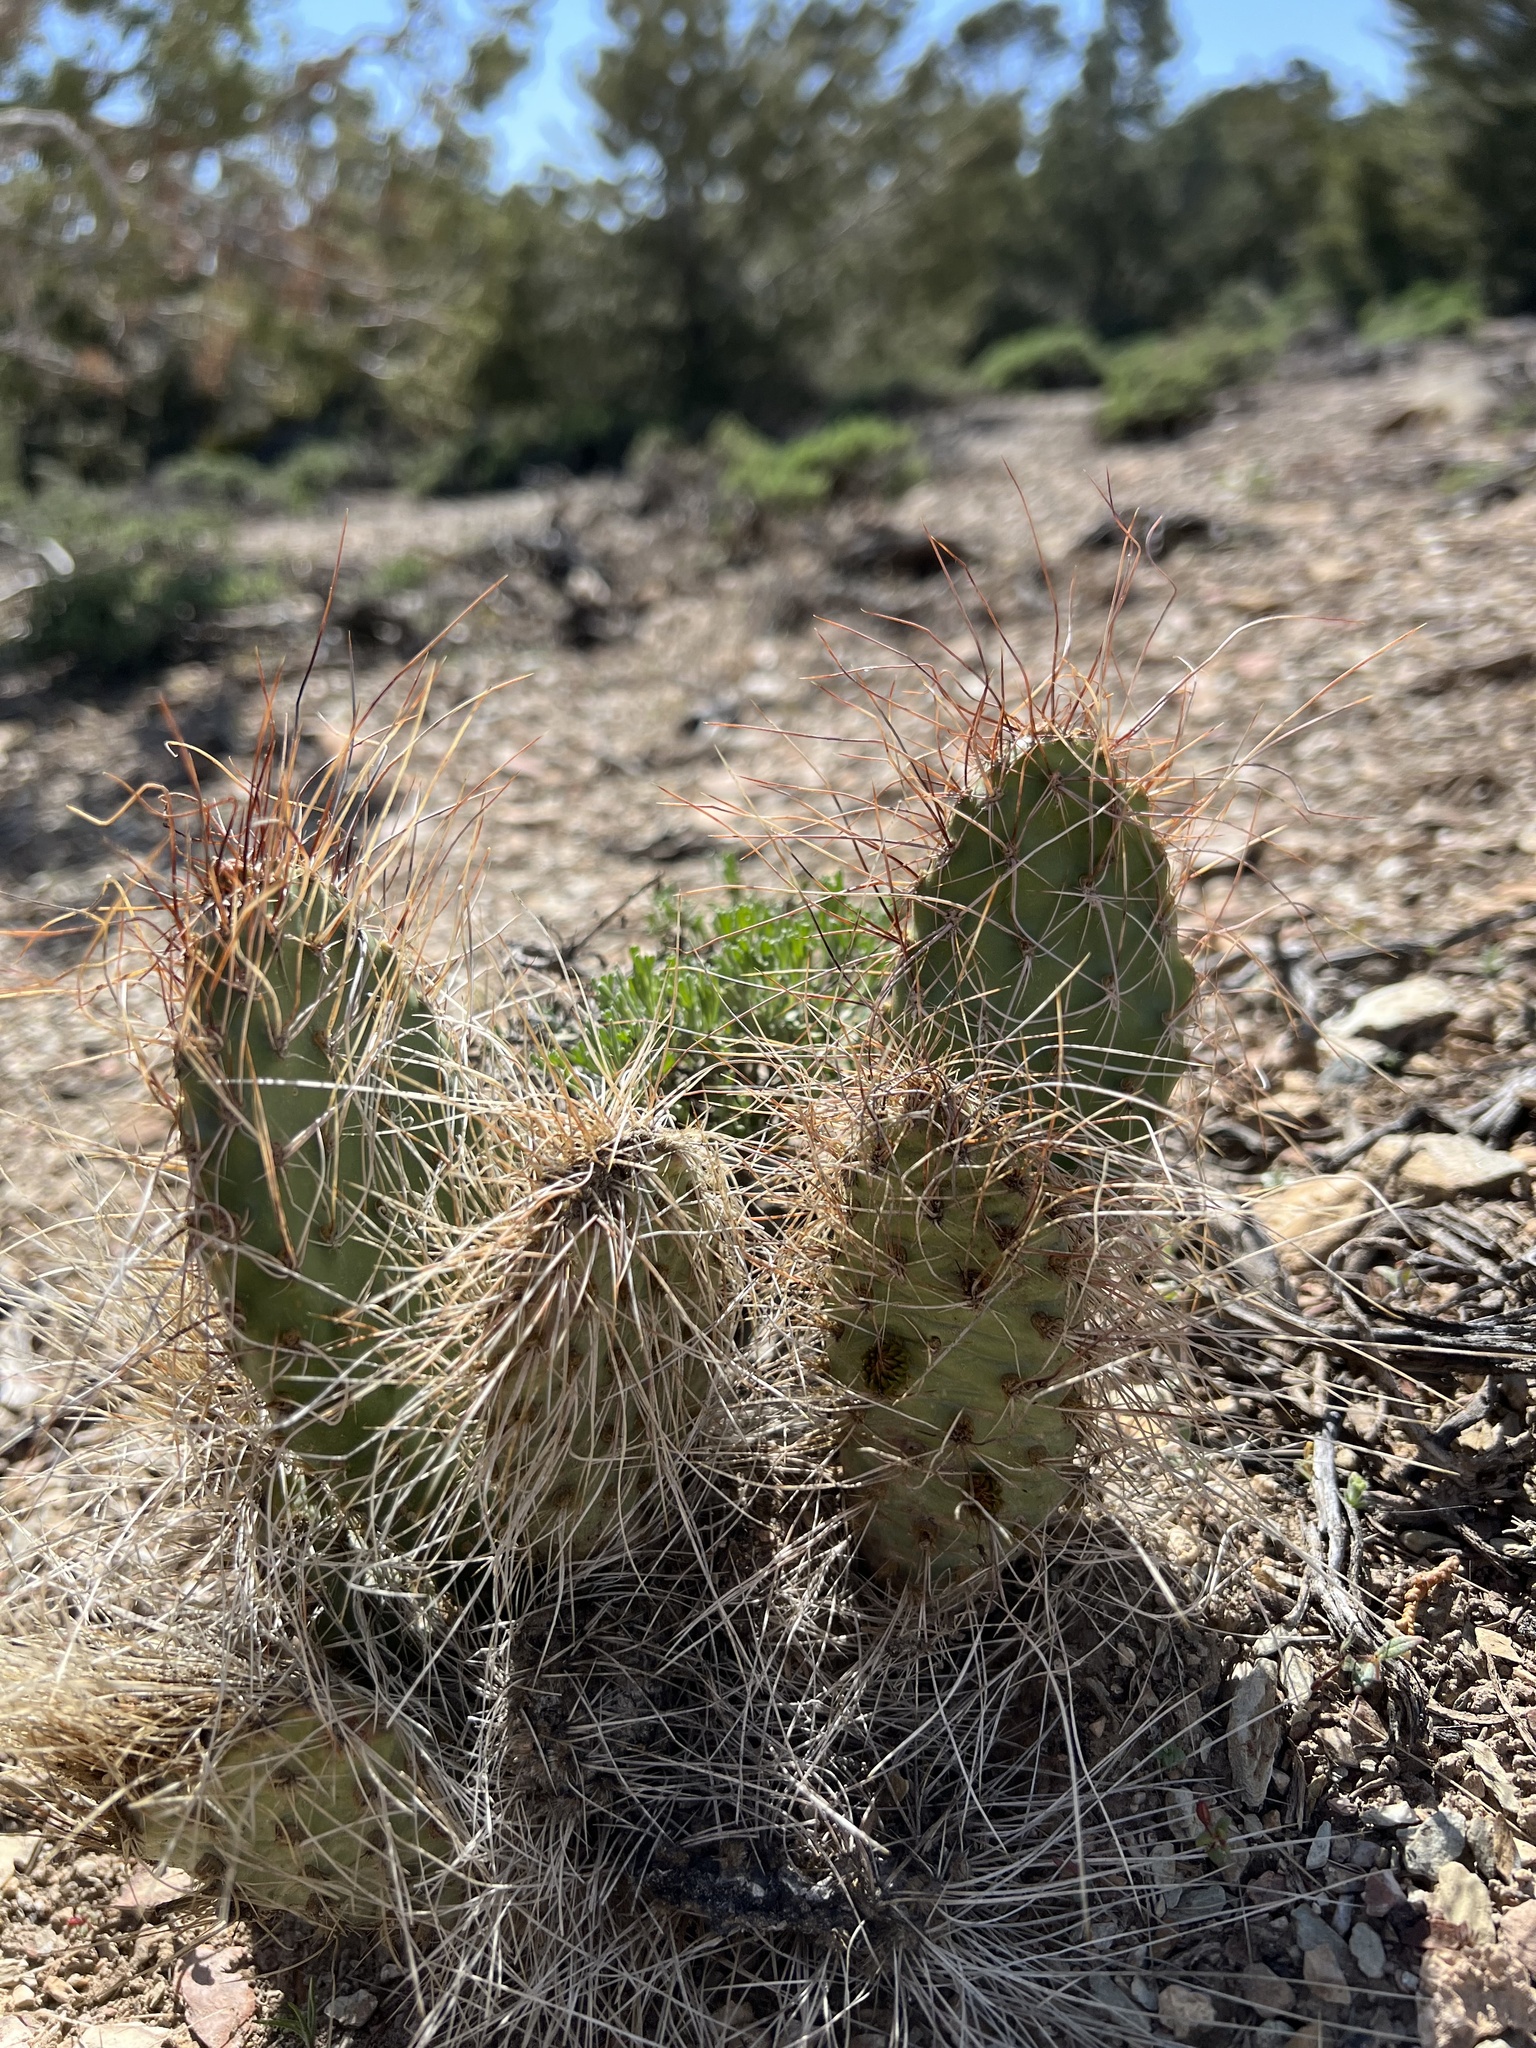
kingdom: Plantae
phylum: Tracheophyta
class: Magnoliopsida
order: Caryophyllales
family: Cactaceae
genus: Opuntia
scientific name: Opuntia polyacantha
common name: Plains prickly-pear
